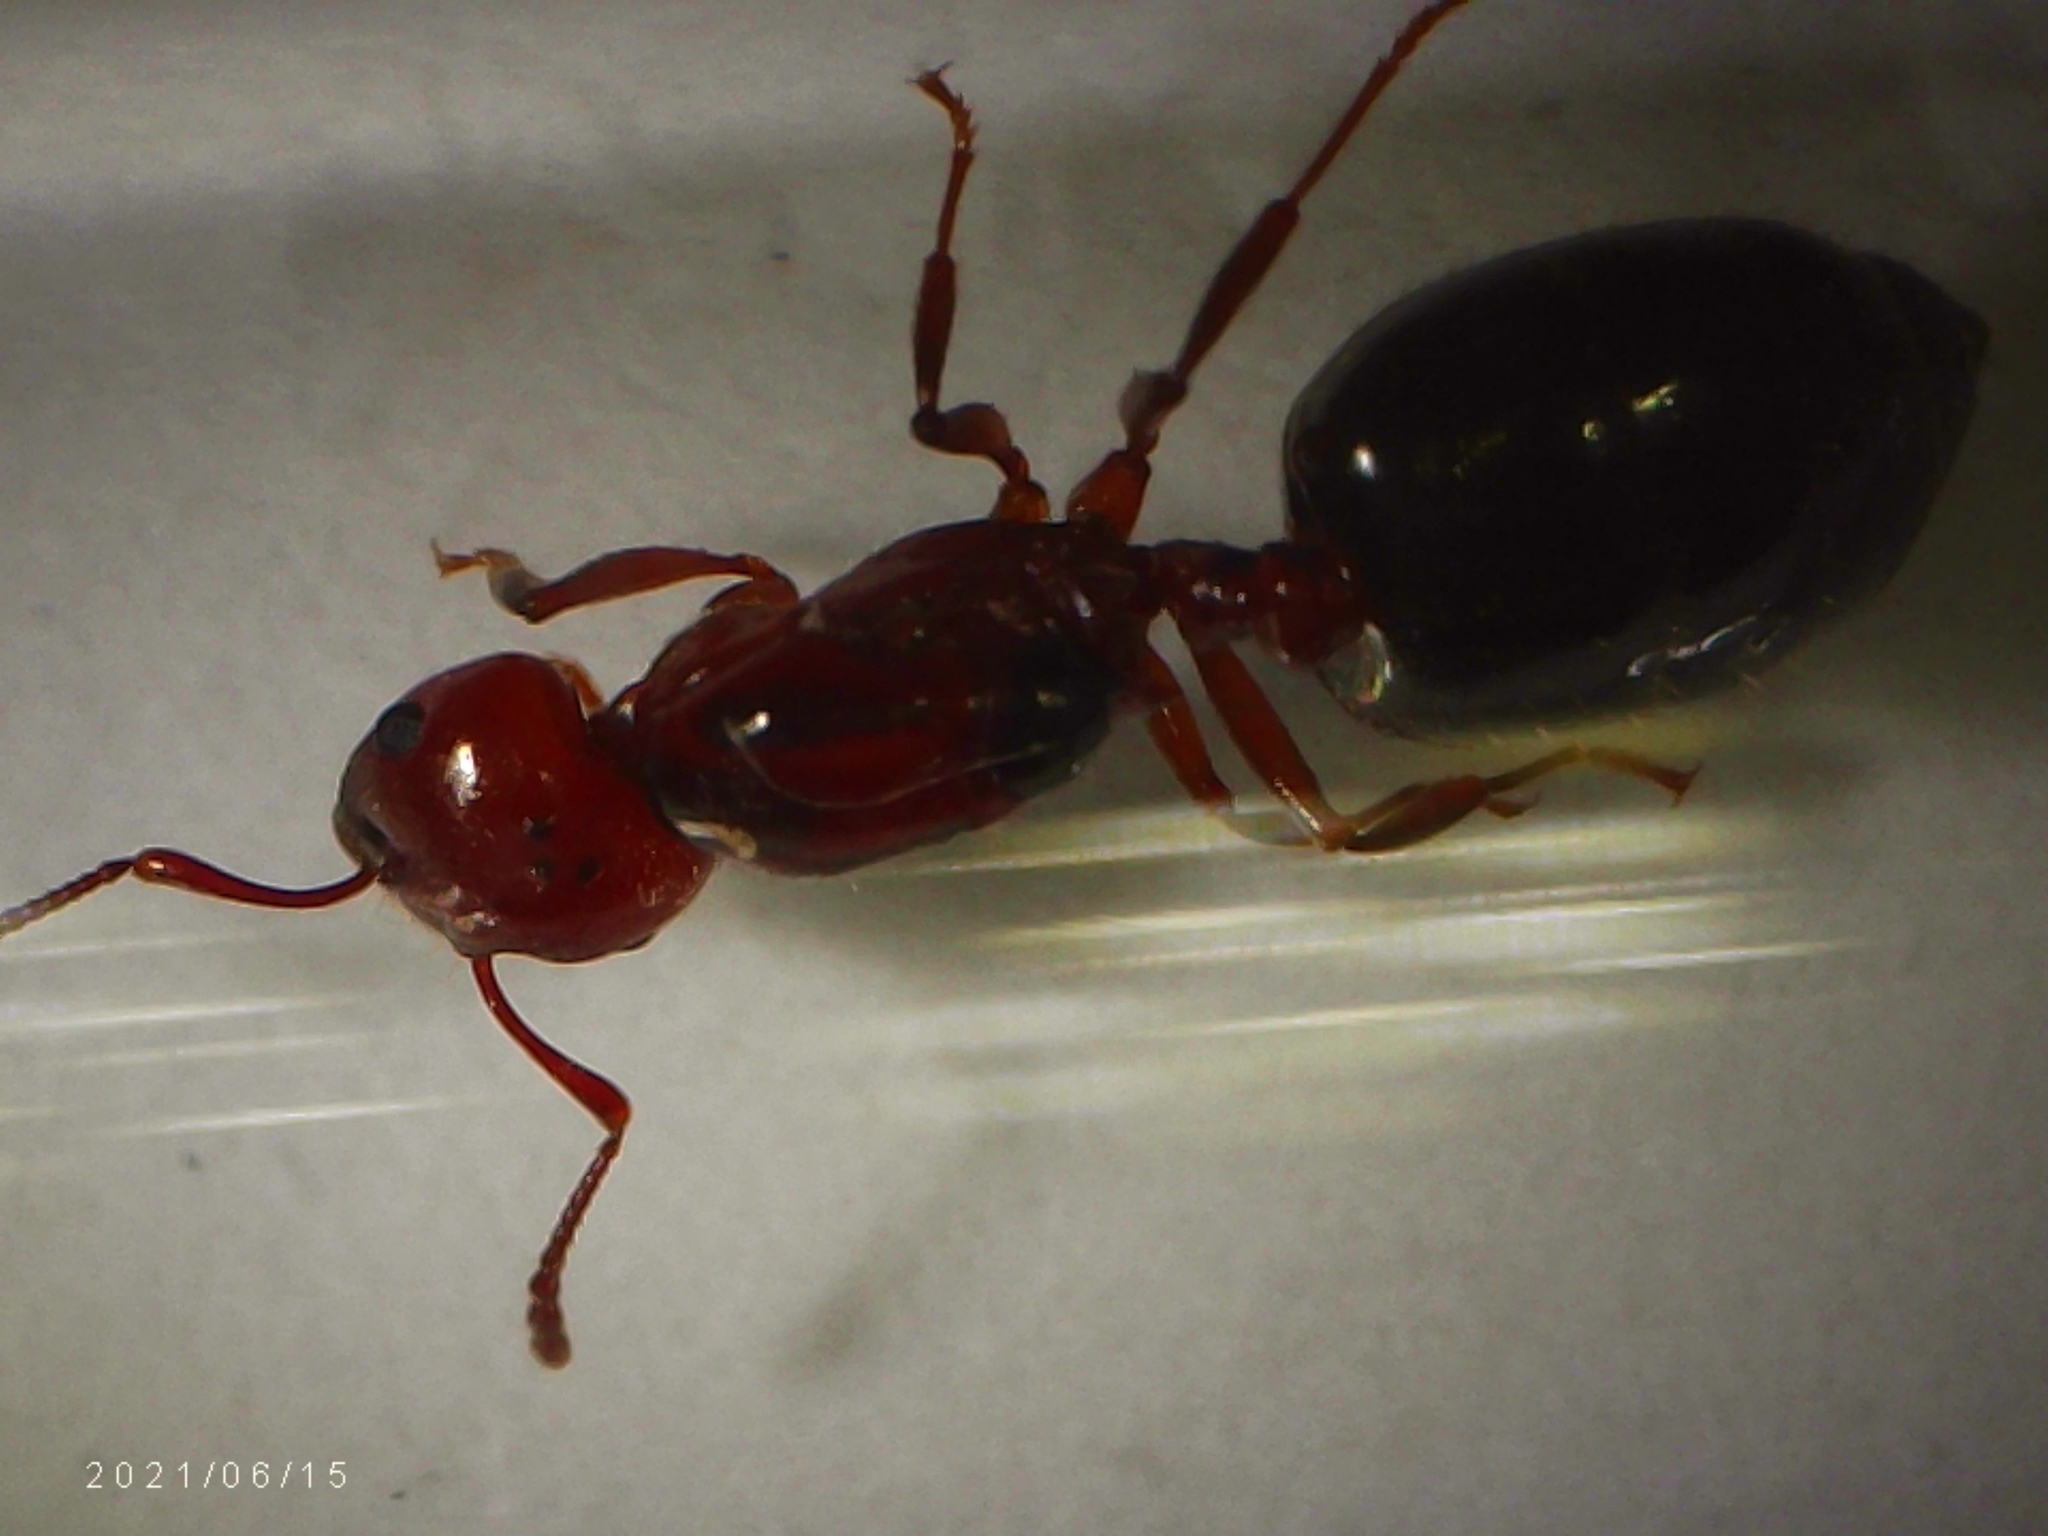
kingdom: Animalia
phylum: Arthropoda
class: Insecta
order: Hymenoptera
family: Formicidae
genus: Crematogaster
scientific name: Crematogaster laeviuscula
